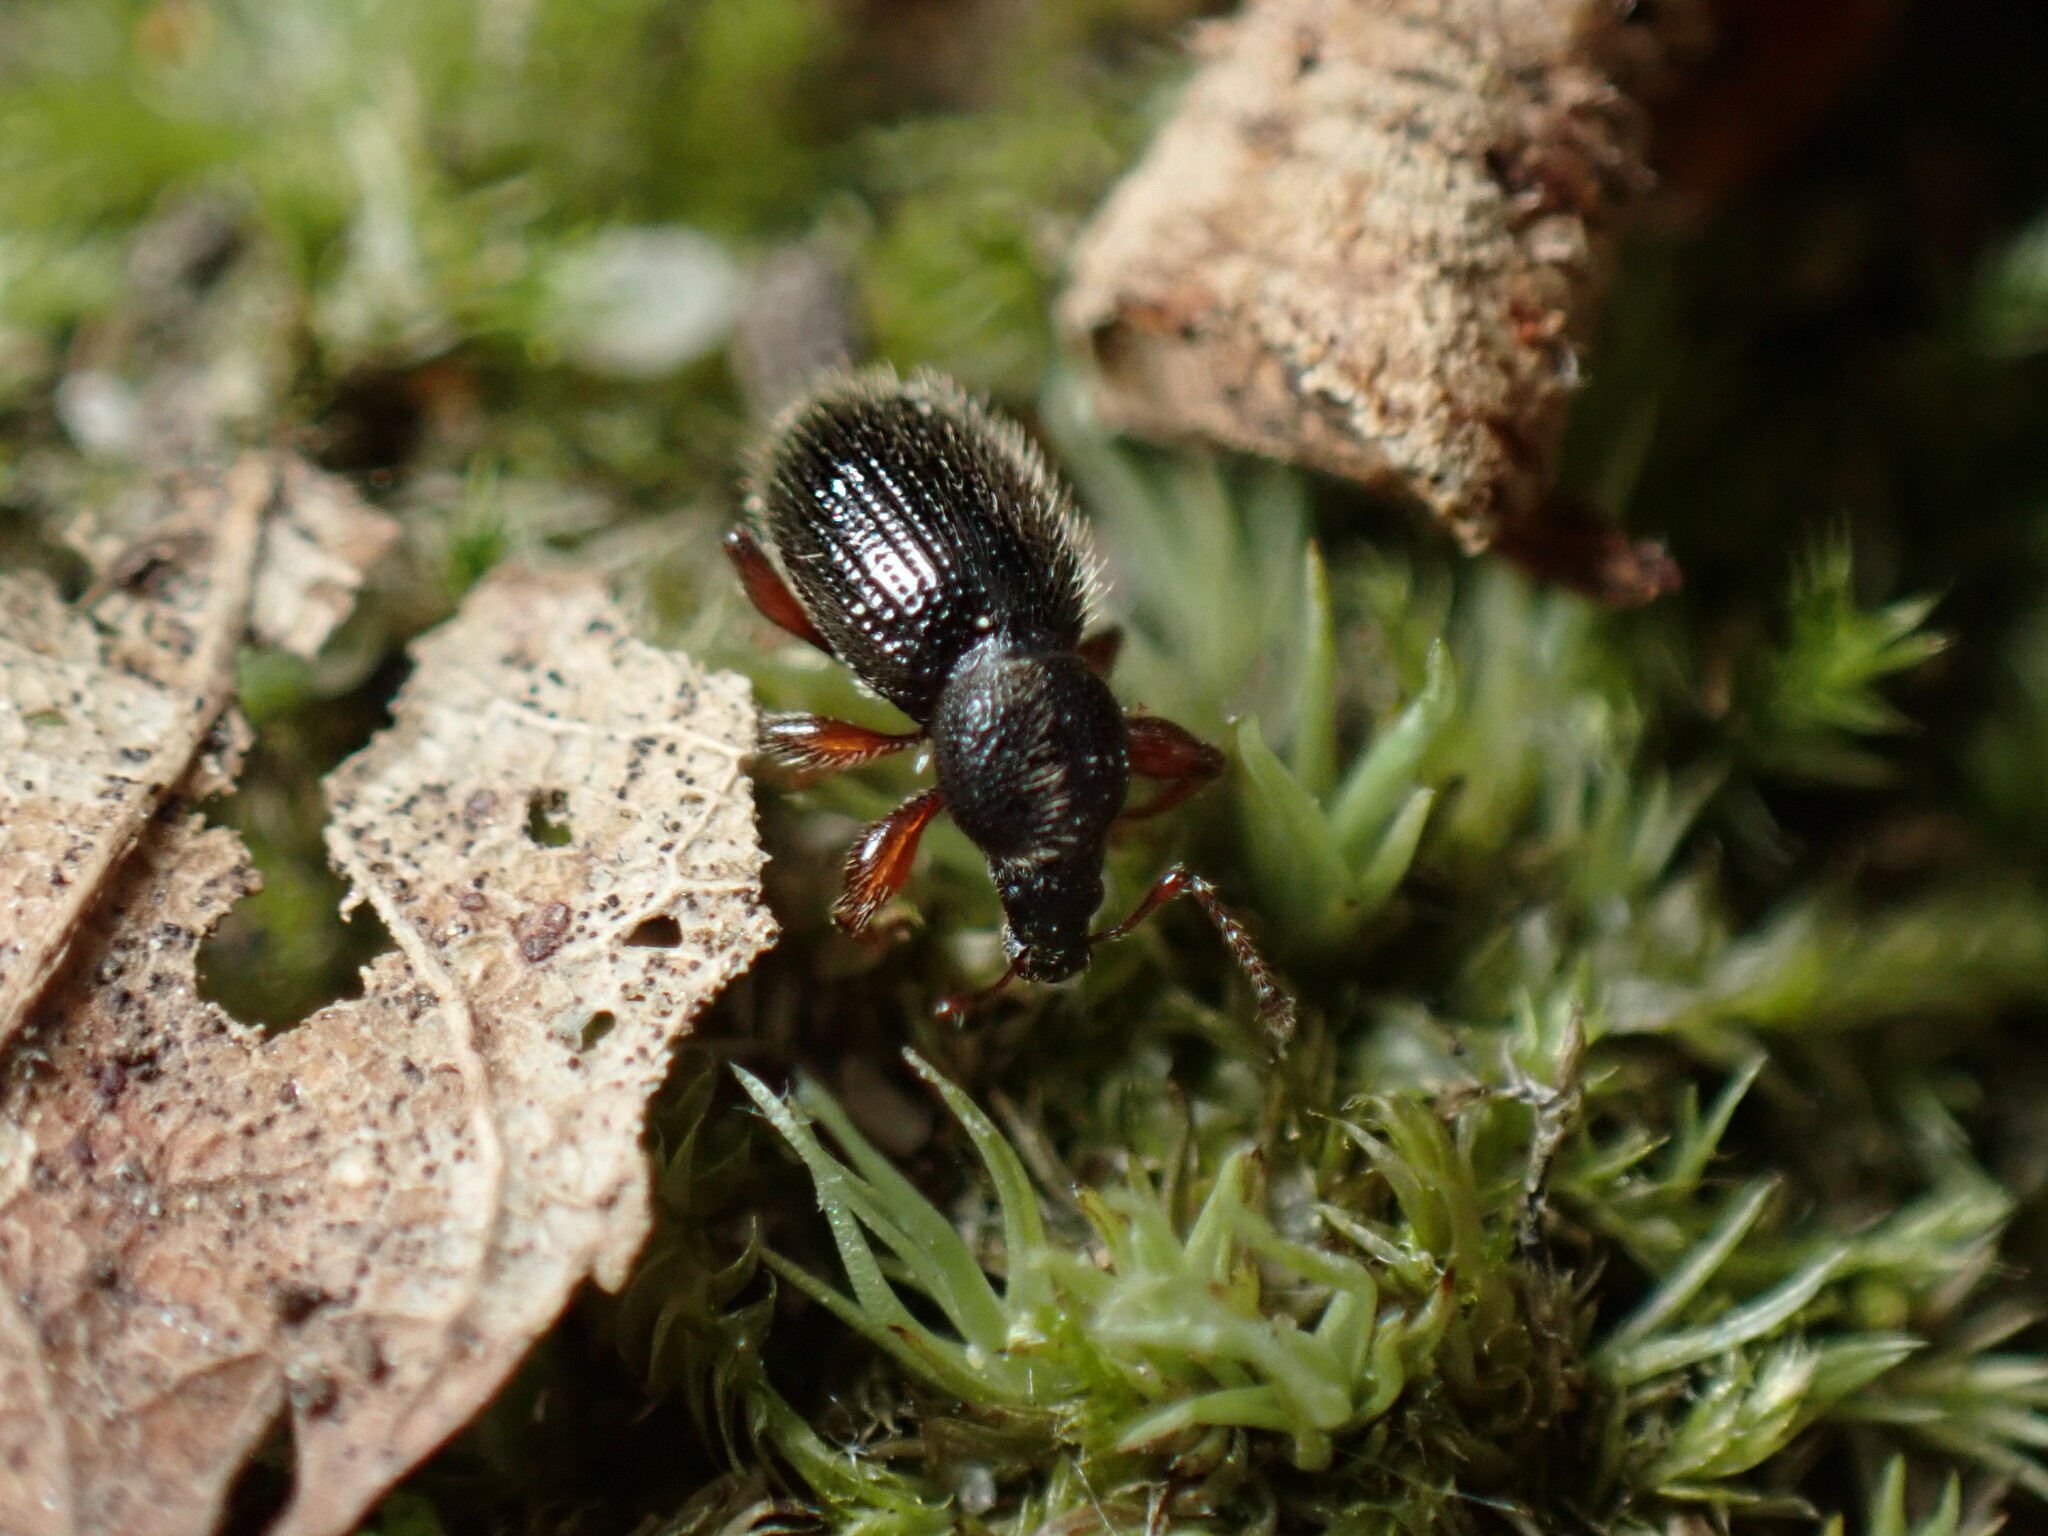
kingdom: Animalia
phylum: Arthropoda
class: Insecta
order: Coleoptera
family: Curculionidae
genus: Exomias
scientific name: Exomias pellucidus
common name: Hairy spider weevil
